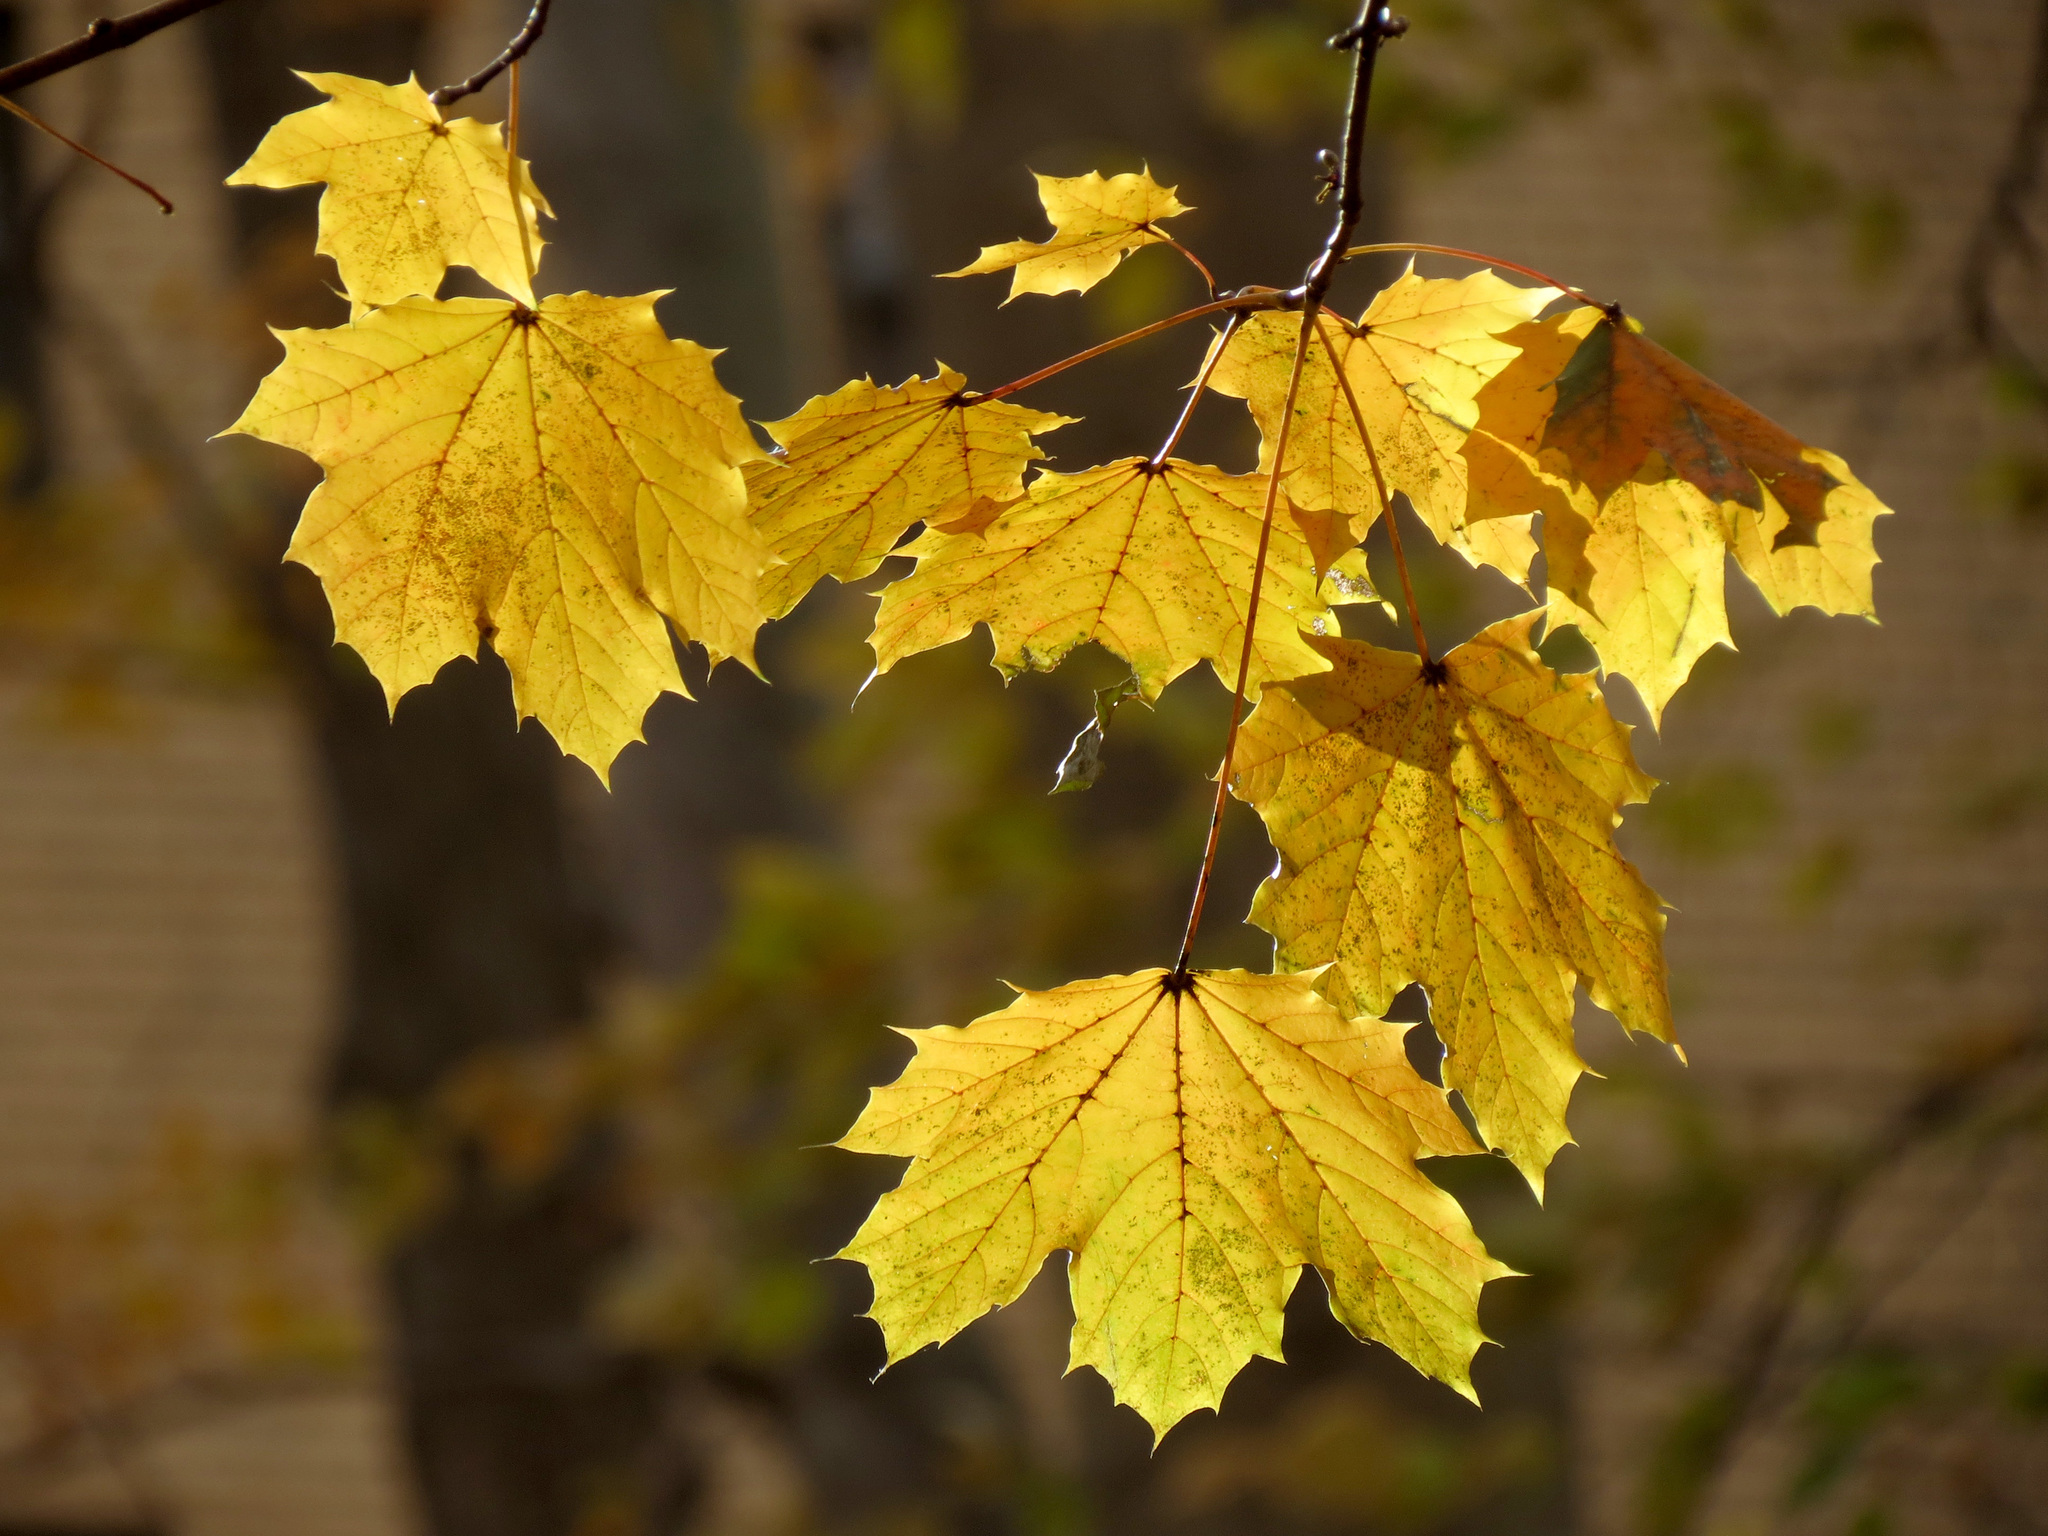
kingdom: Plantae
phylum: Tracheophyta
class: Magnoliopsida
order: Sapindales
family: Sapindaceae
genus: Acer
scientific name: Acer platanoides
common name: Norway maple
